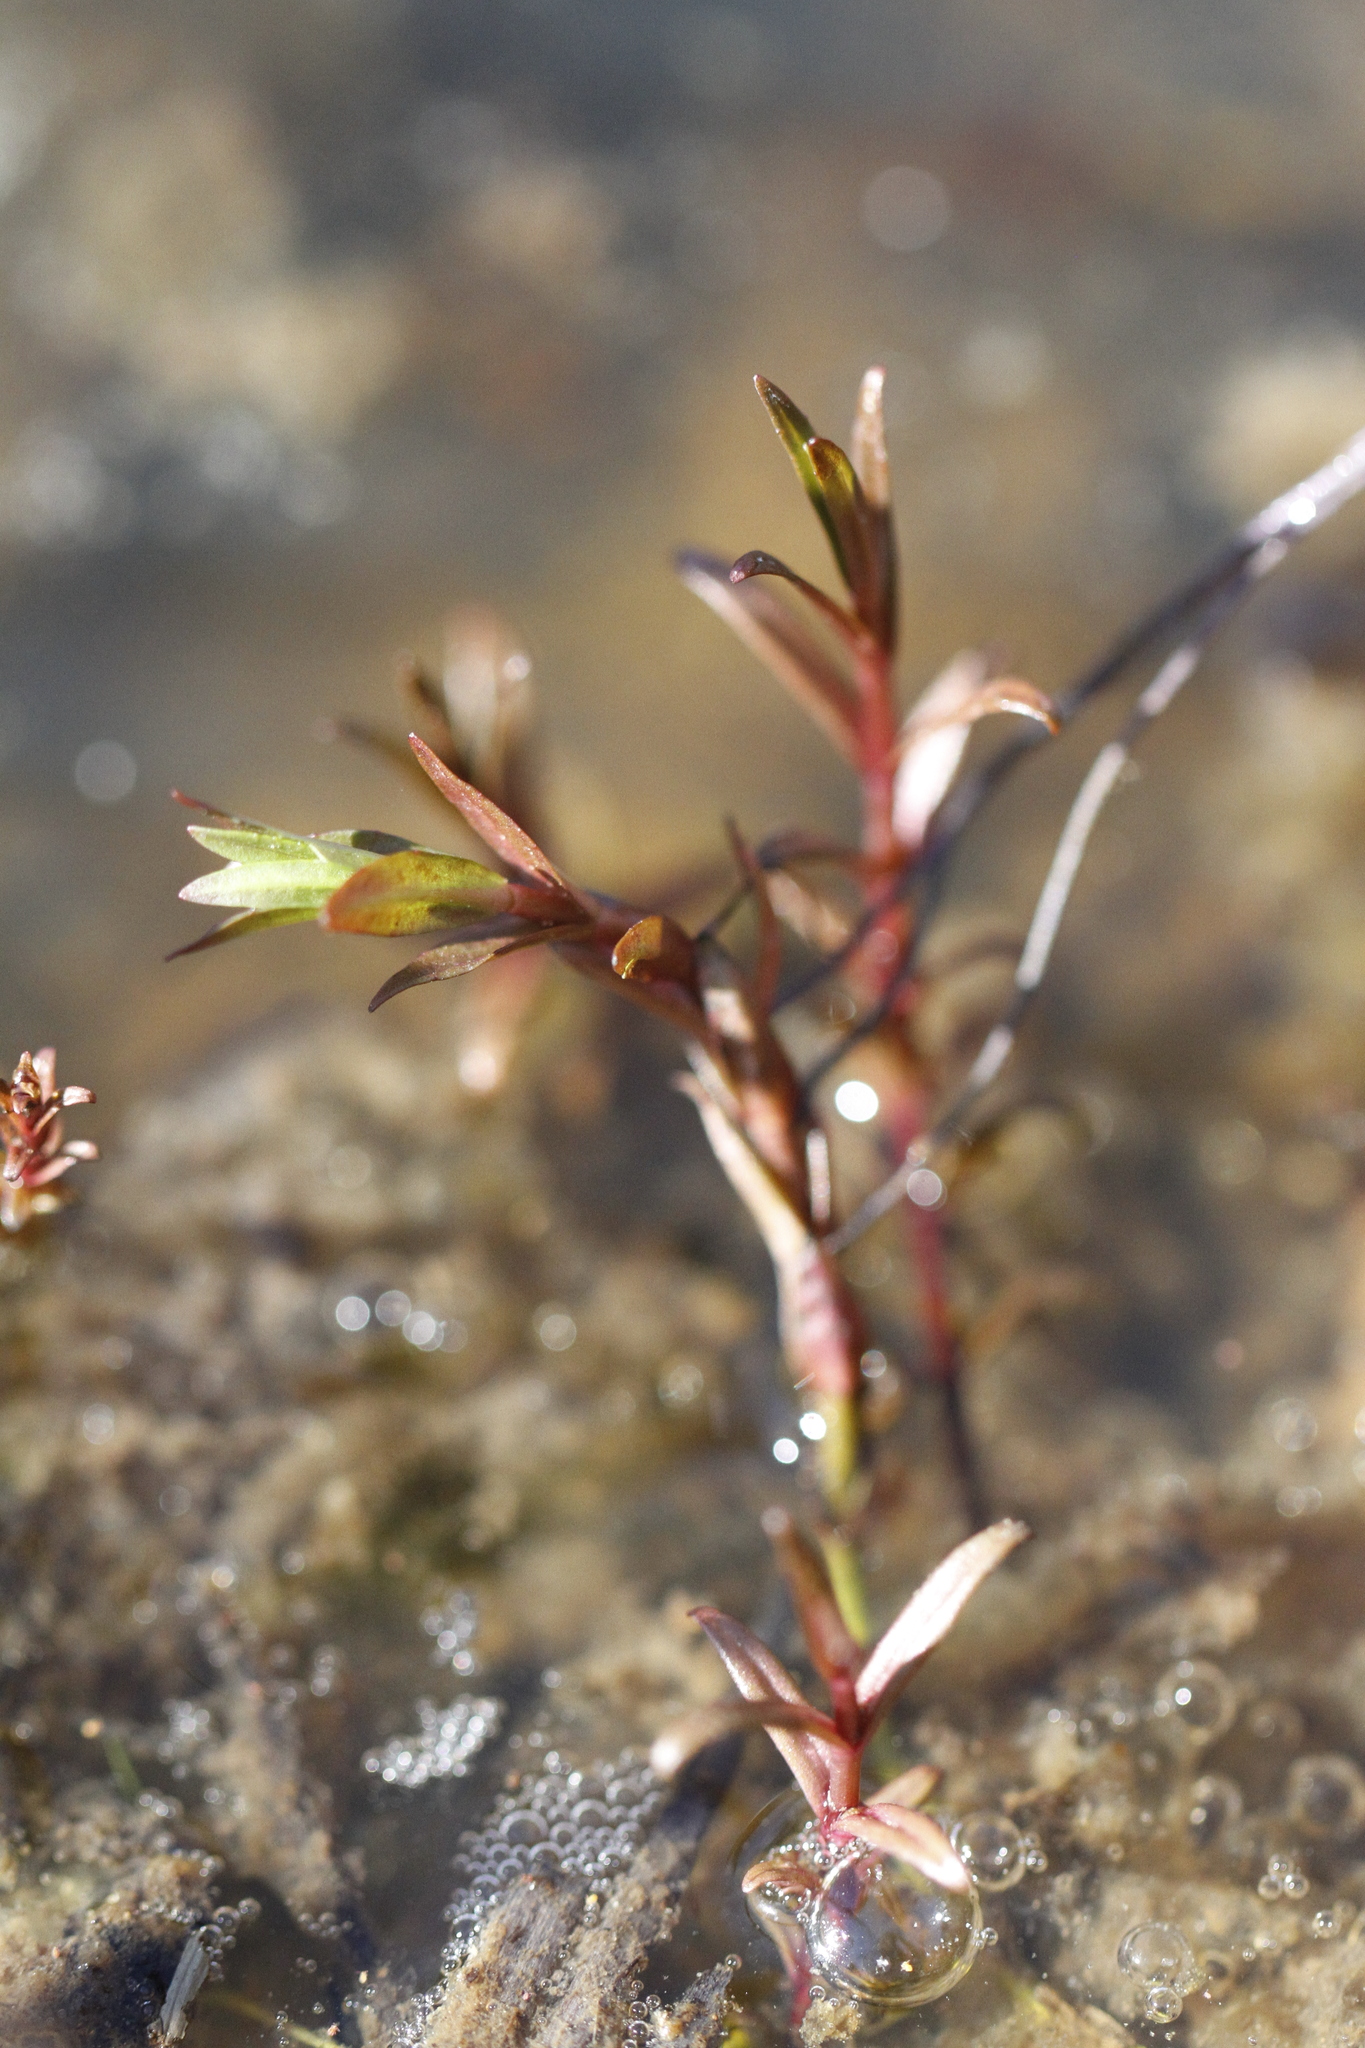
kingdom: Plantae
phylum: Tracheophyta
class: Magnoliopsida
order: Lamiales
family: Plantaginaceae
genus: Veronica
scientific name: Veronica scutellata
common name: Marsh speedwell
